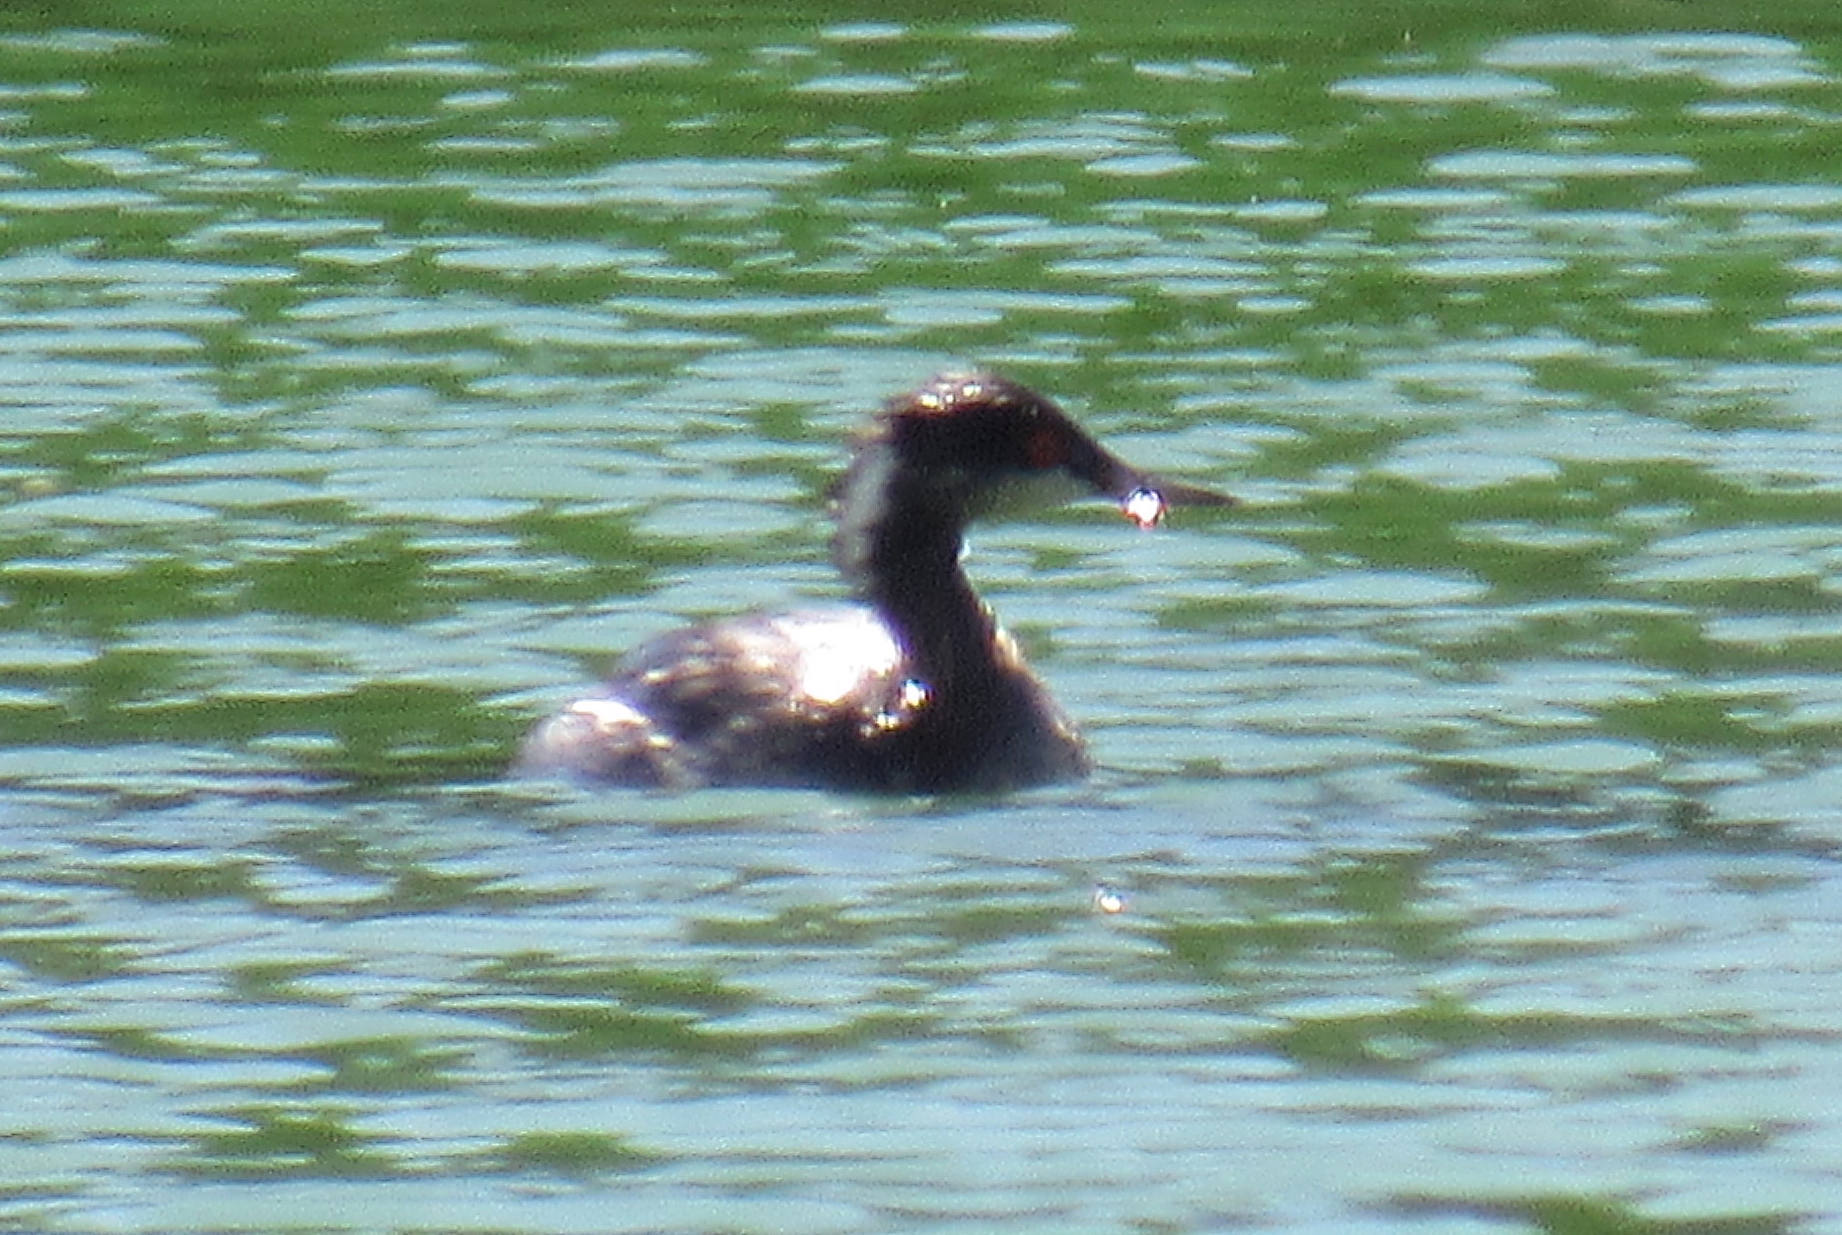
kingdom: Animalia
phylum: Chordata
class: Aves
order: Podicipediformes
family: Podicipedidae
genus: Podiceps
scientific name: Podiceps nigricollis
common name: Black-necked grebe
